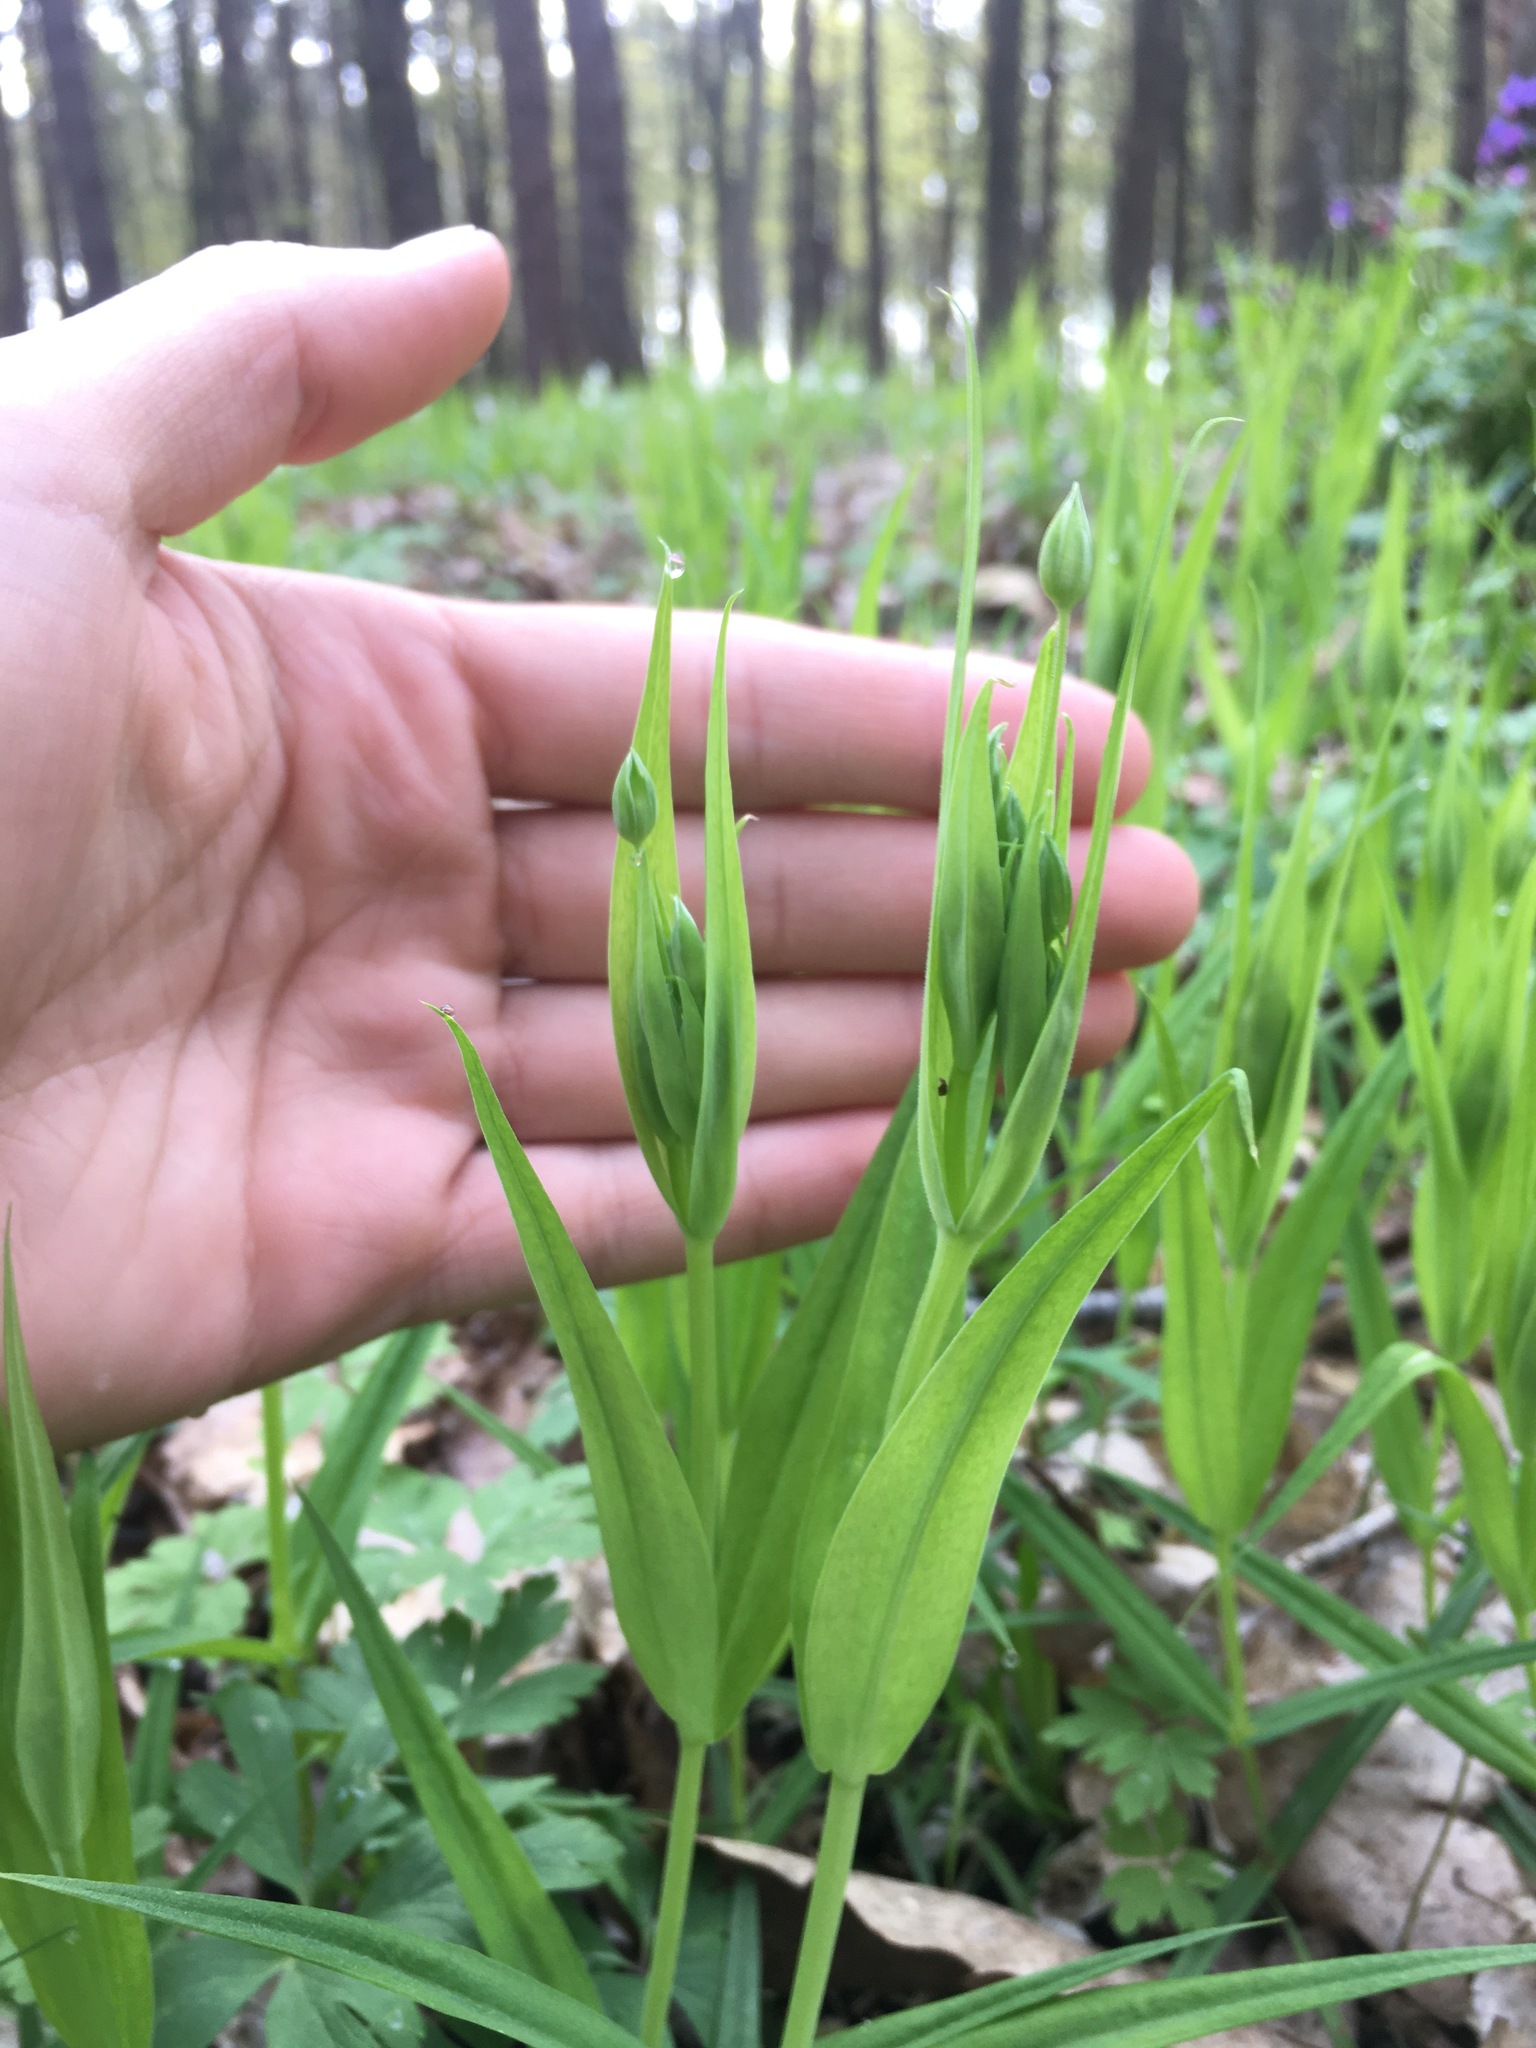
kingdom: Plantae
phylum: Tracheophyta
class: Magnoliopsida
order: Caryophyllales
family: Caryophyllaceae
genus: Rabelera
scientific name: Rabelera holostea
